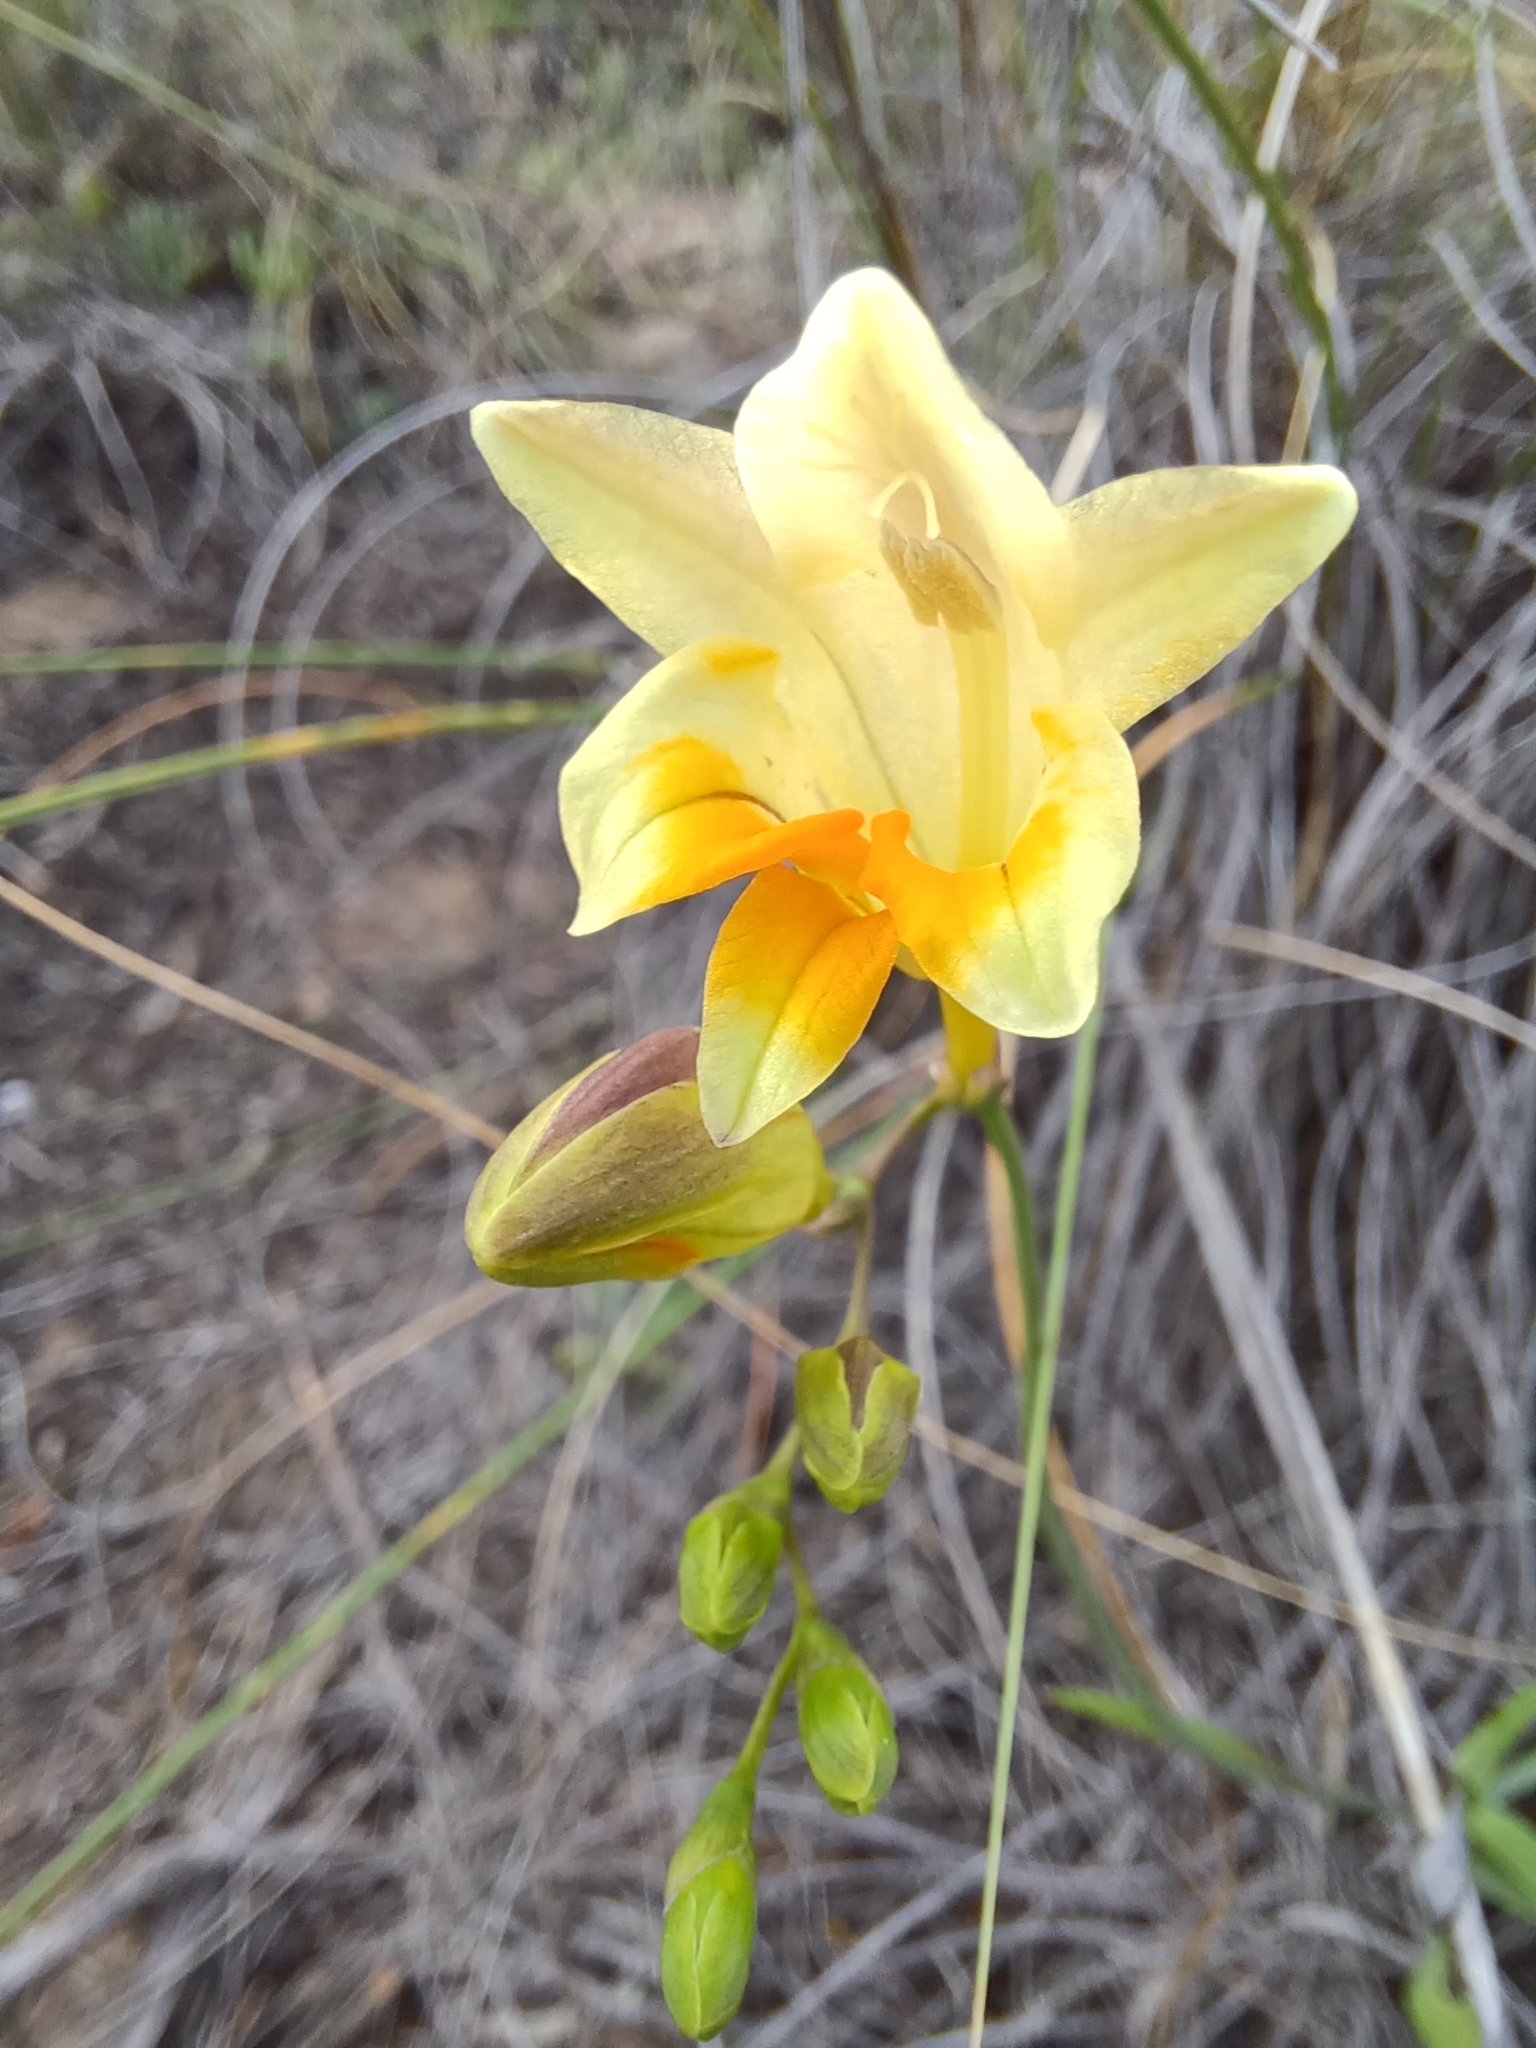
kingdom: Plantae
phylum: Tracheophyta
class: Liliopsida
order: Asparagales
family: Iridaceae
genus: Freesia
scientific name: Freesia refracta
